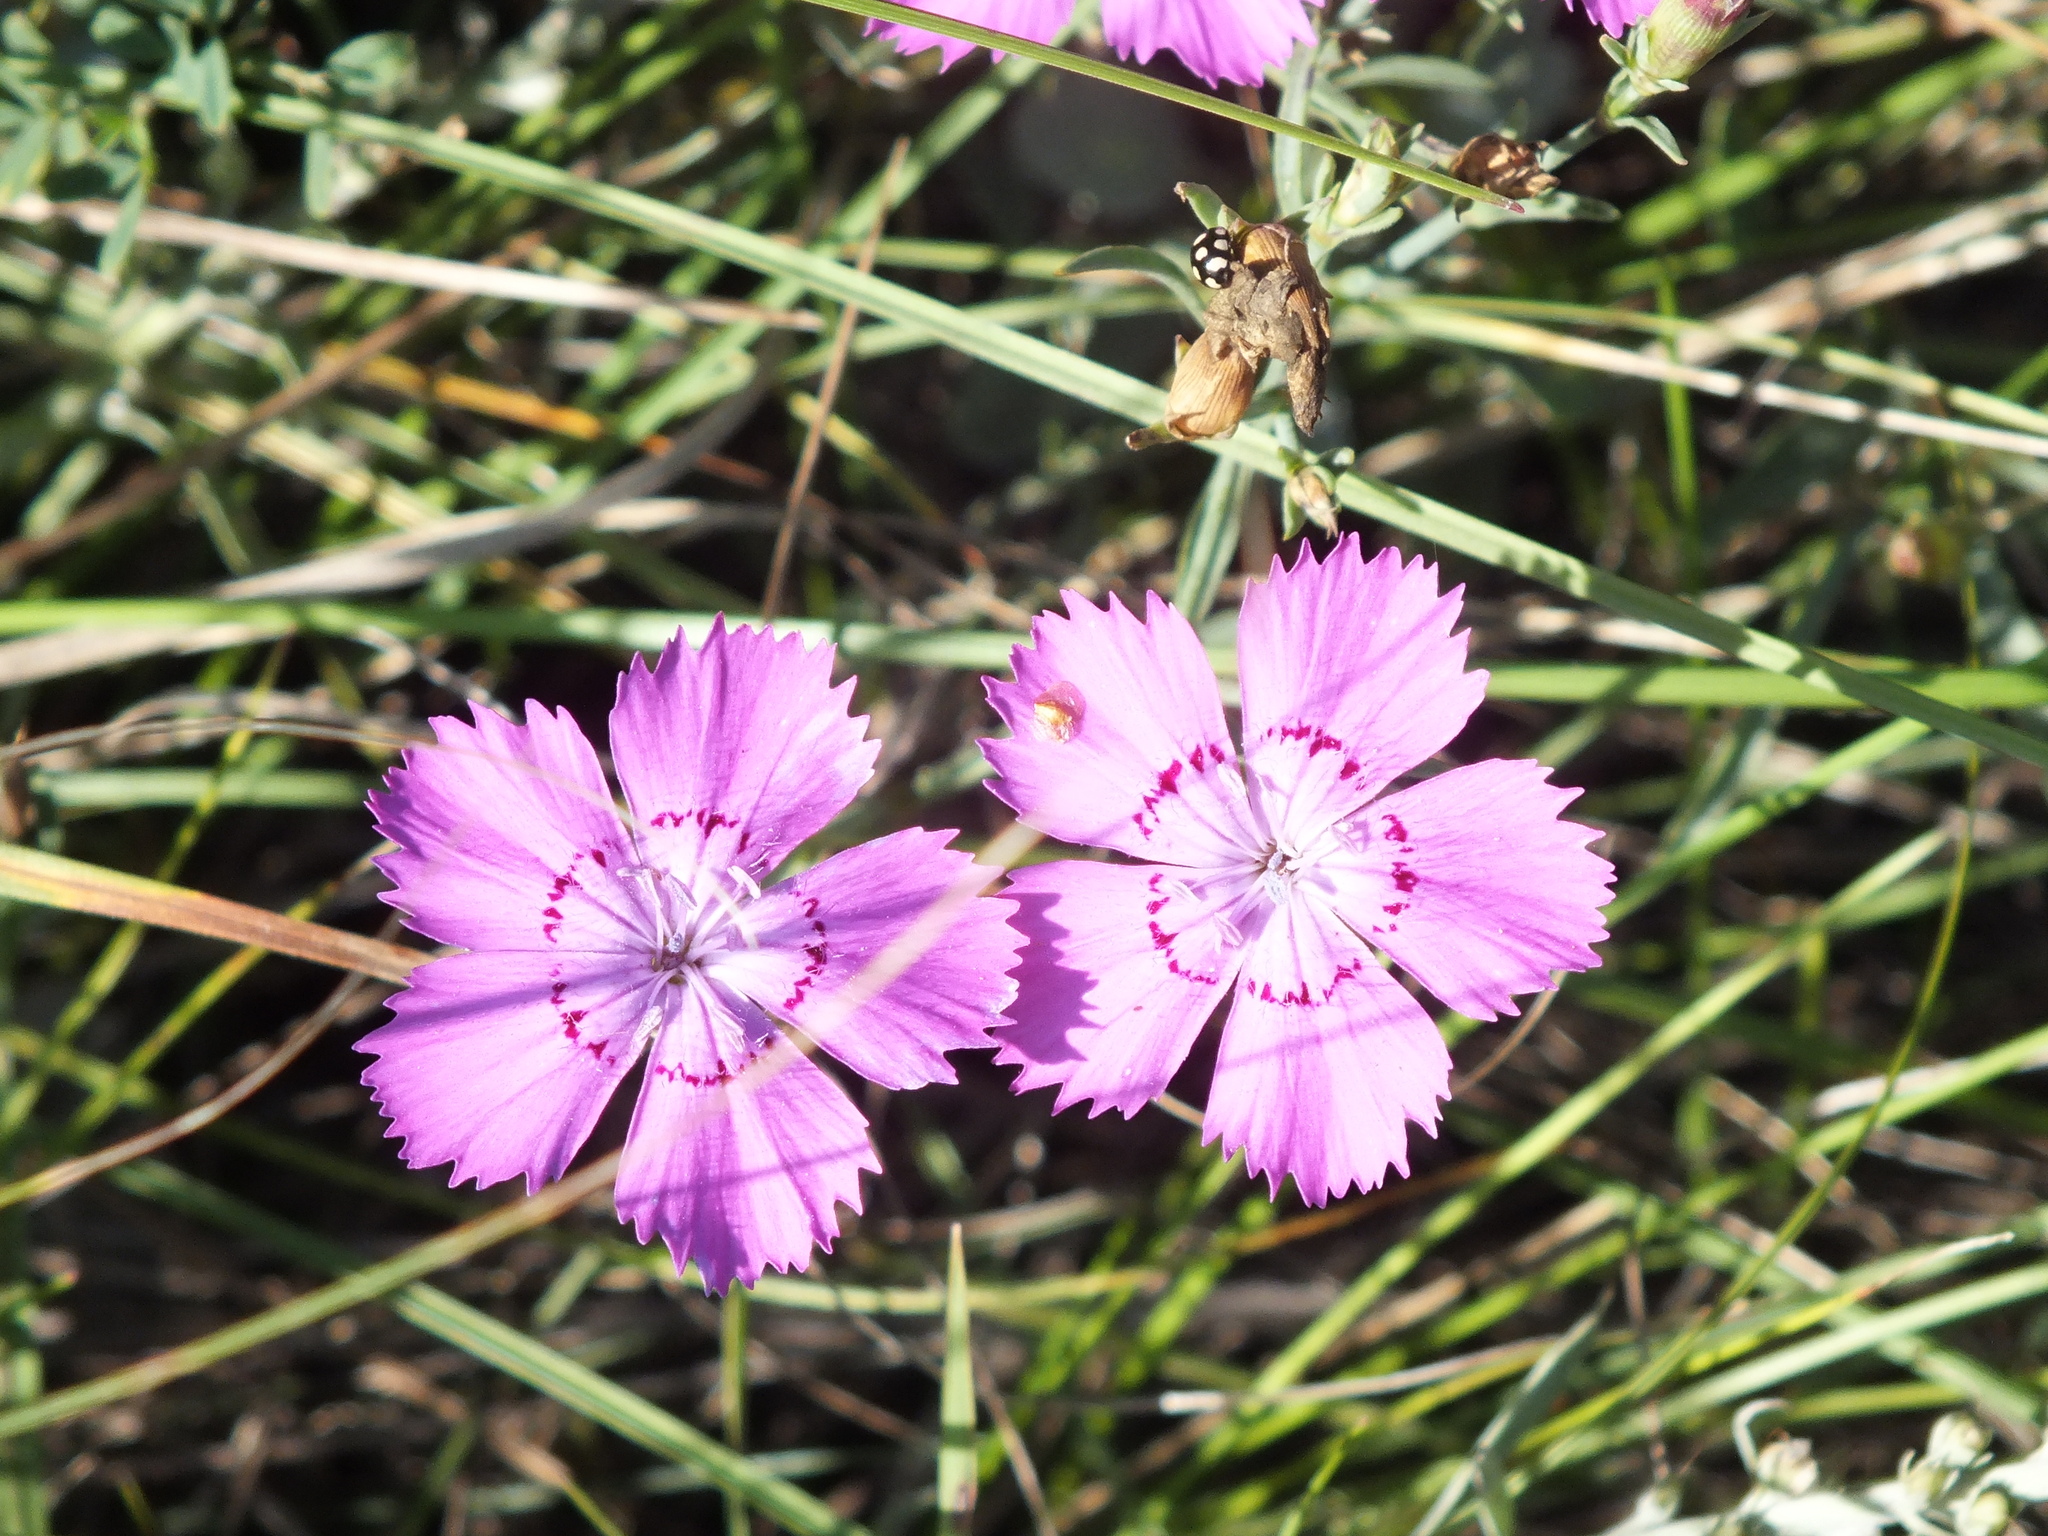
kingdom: Plantae
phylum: Tracheophyta
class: Magnoliopsida
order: Caryophyllales
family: Caryophyllaceae
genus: Dianthus
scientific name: Dianthus chinensis
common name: Rainbow pink
